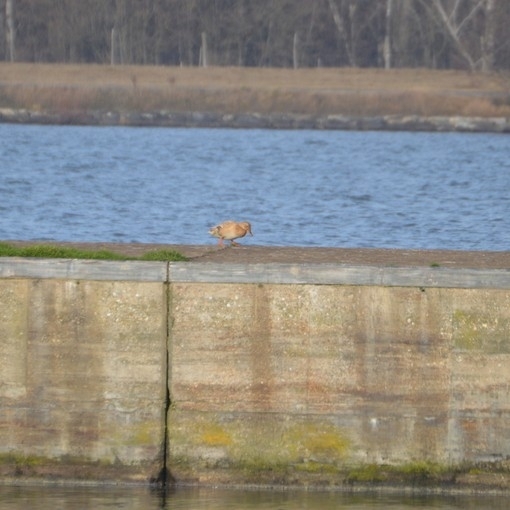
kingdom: Animalia
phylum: Chordata
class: Aves
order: Anseriformes
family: Anatidae
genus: Anas
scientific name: Anas platyrhynchos
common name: Mallard
